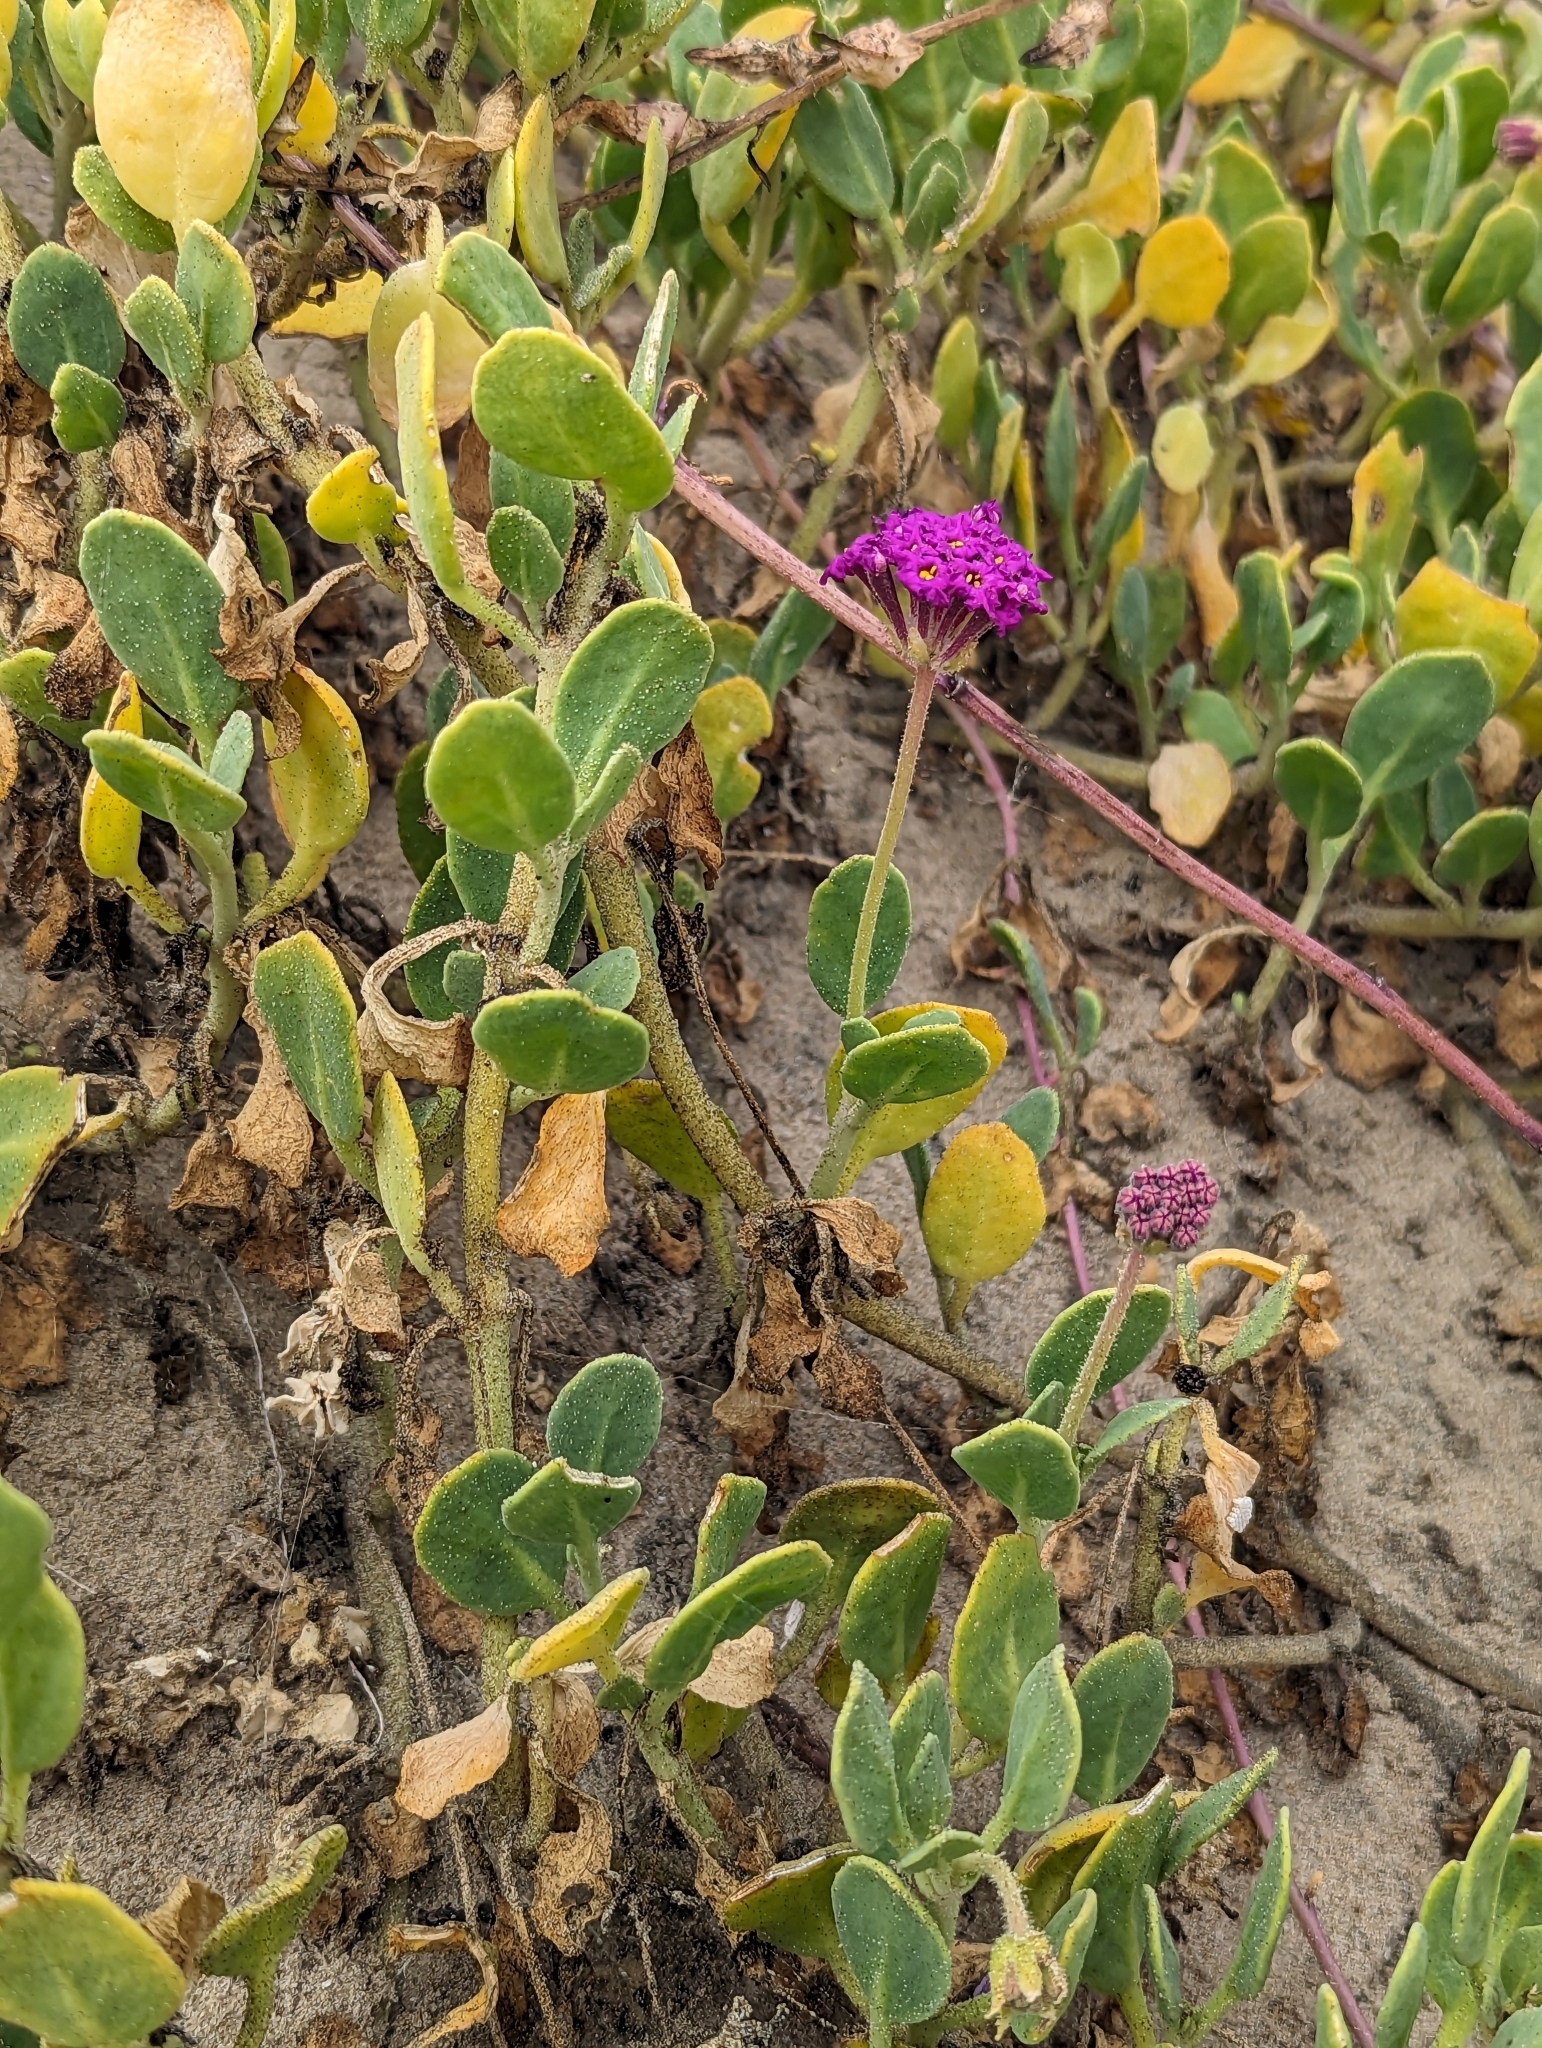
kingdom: Plantae
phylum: Tracheophyta
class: Magnoliopsida
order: Caryophyllales
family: Nyctaginaceae
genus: Abronia
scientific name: Abronia maritima
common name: Red sand-verbena
